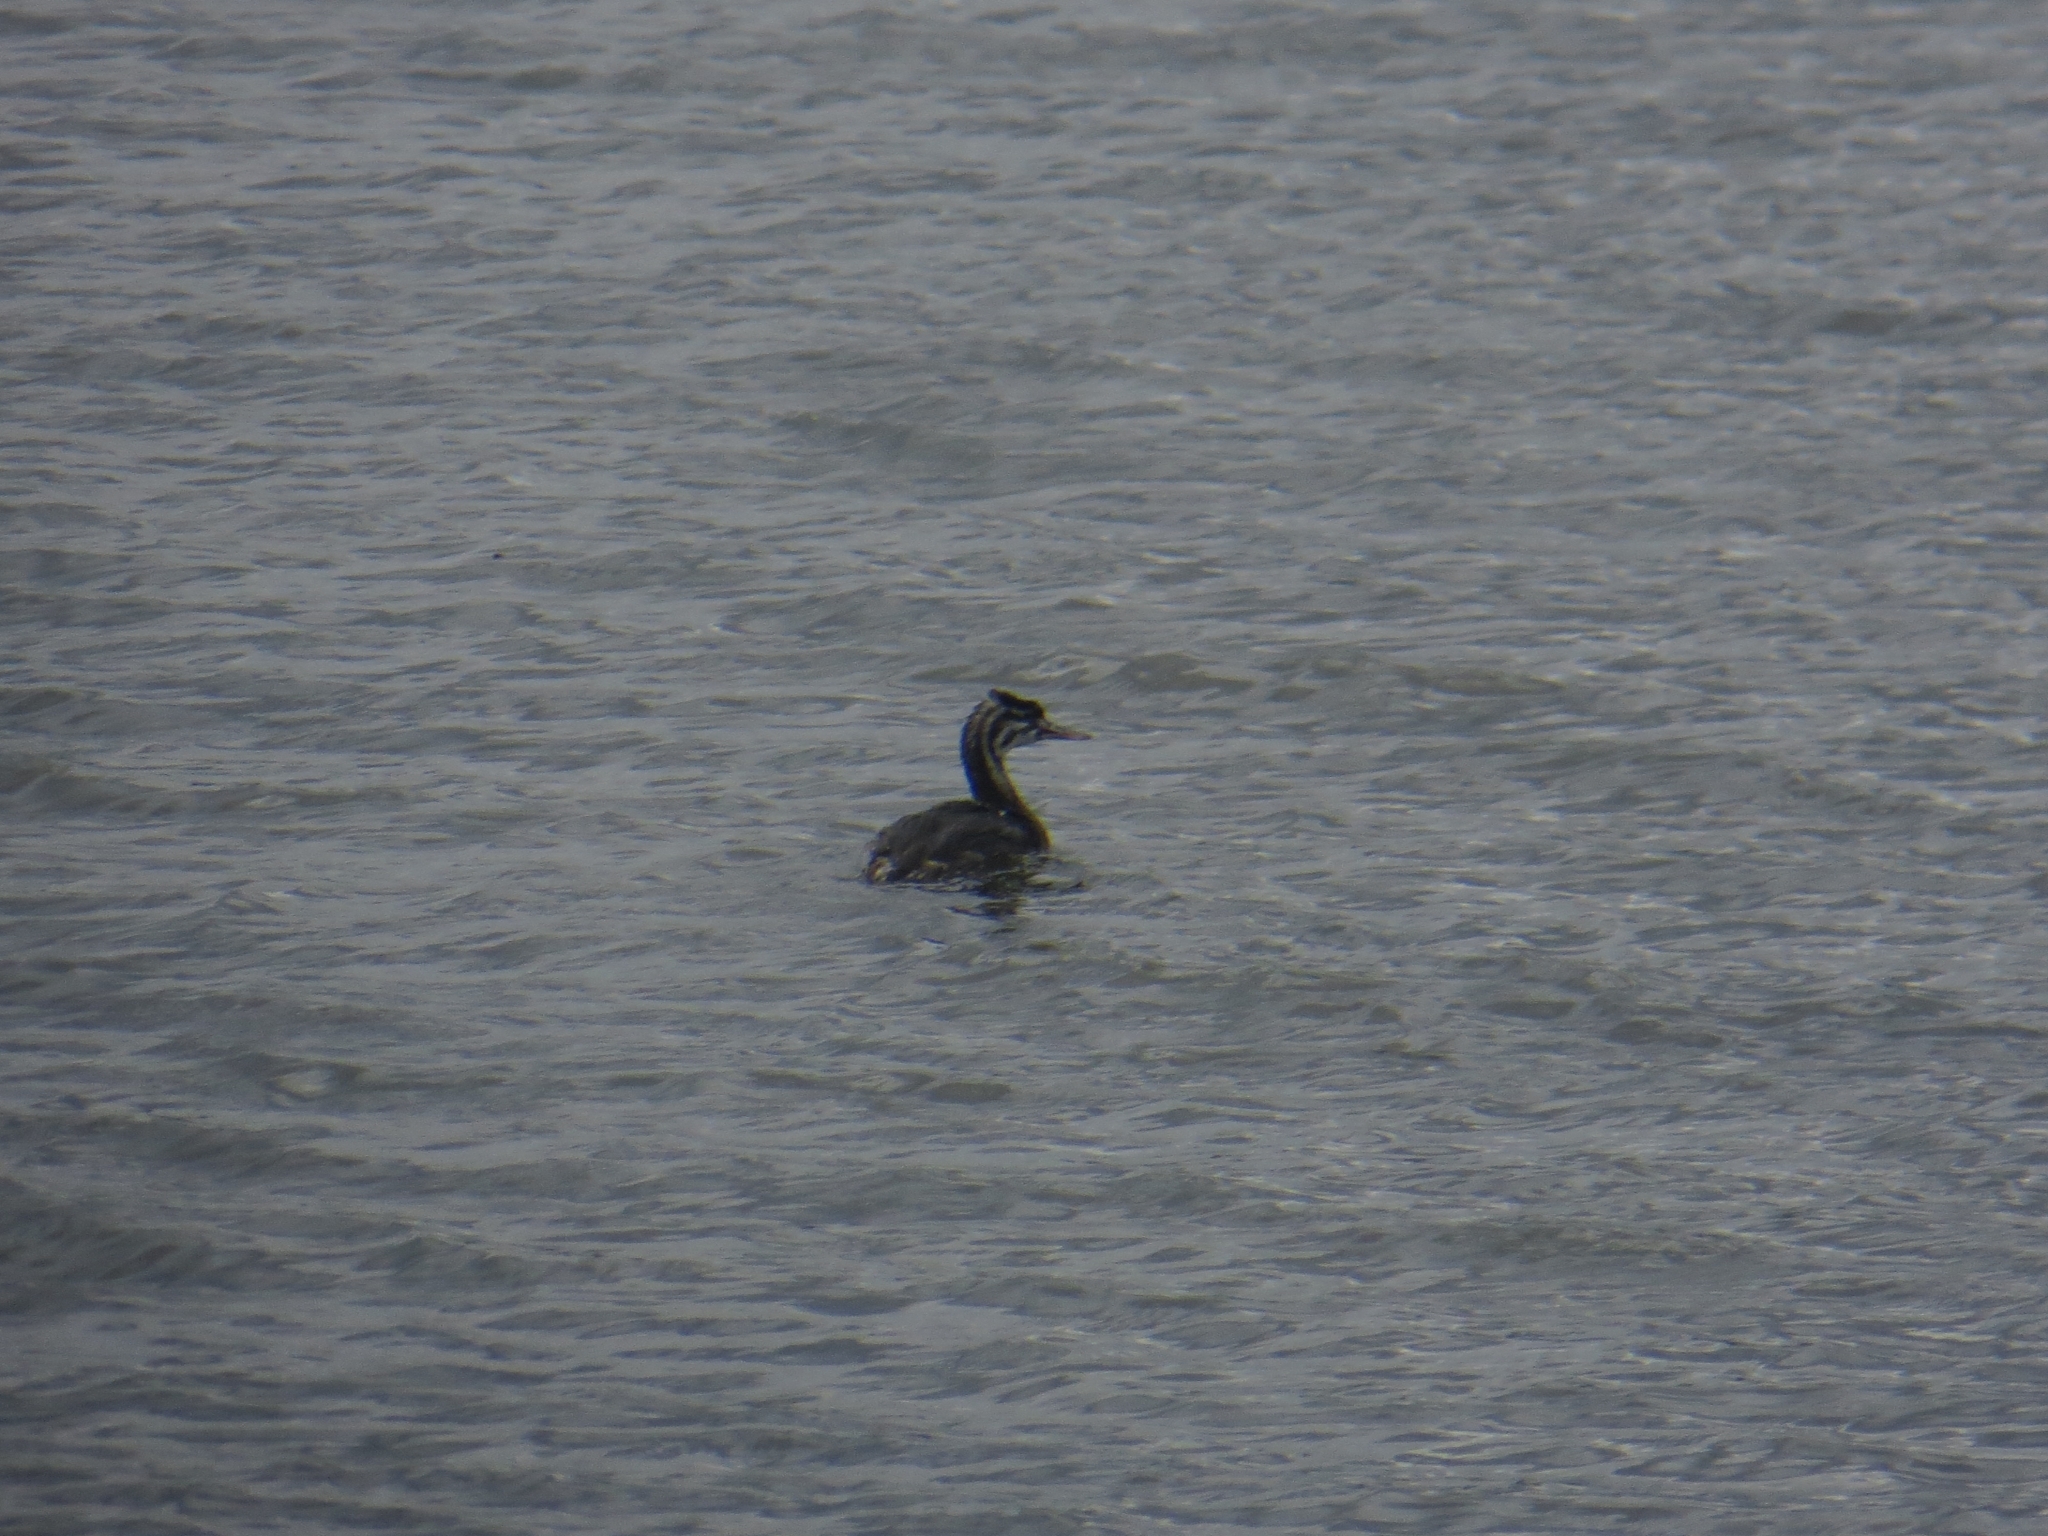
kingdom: Animalia
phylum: Chordata
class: Aves
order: Podicipediformes
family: Podicipedidae
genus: Podiceps
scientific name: Podiceps cristatus
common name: Great crested grebe
